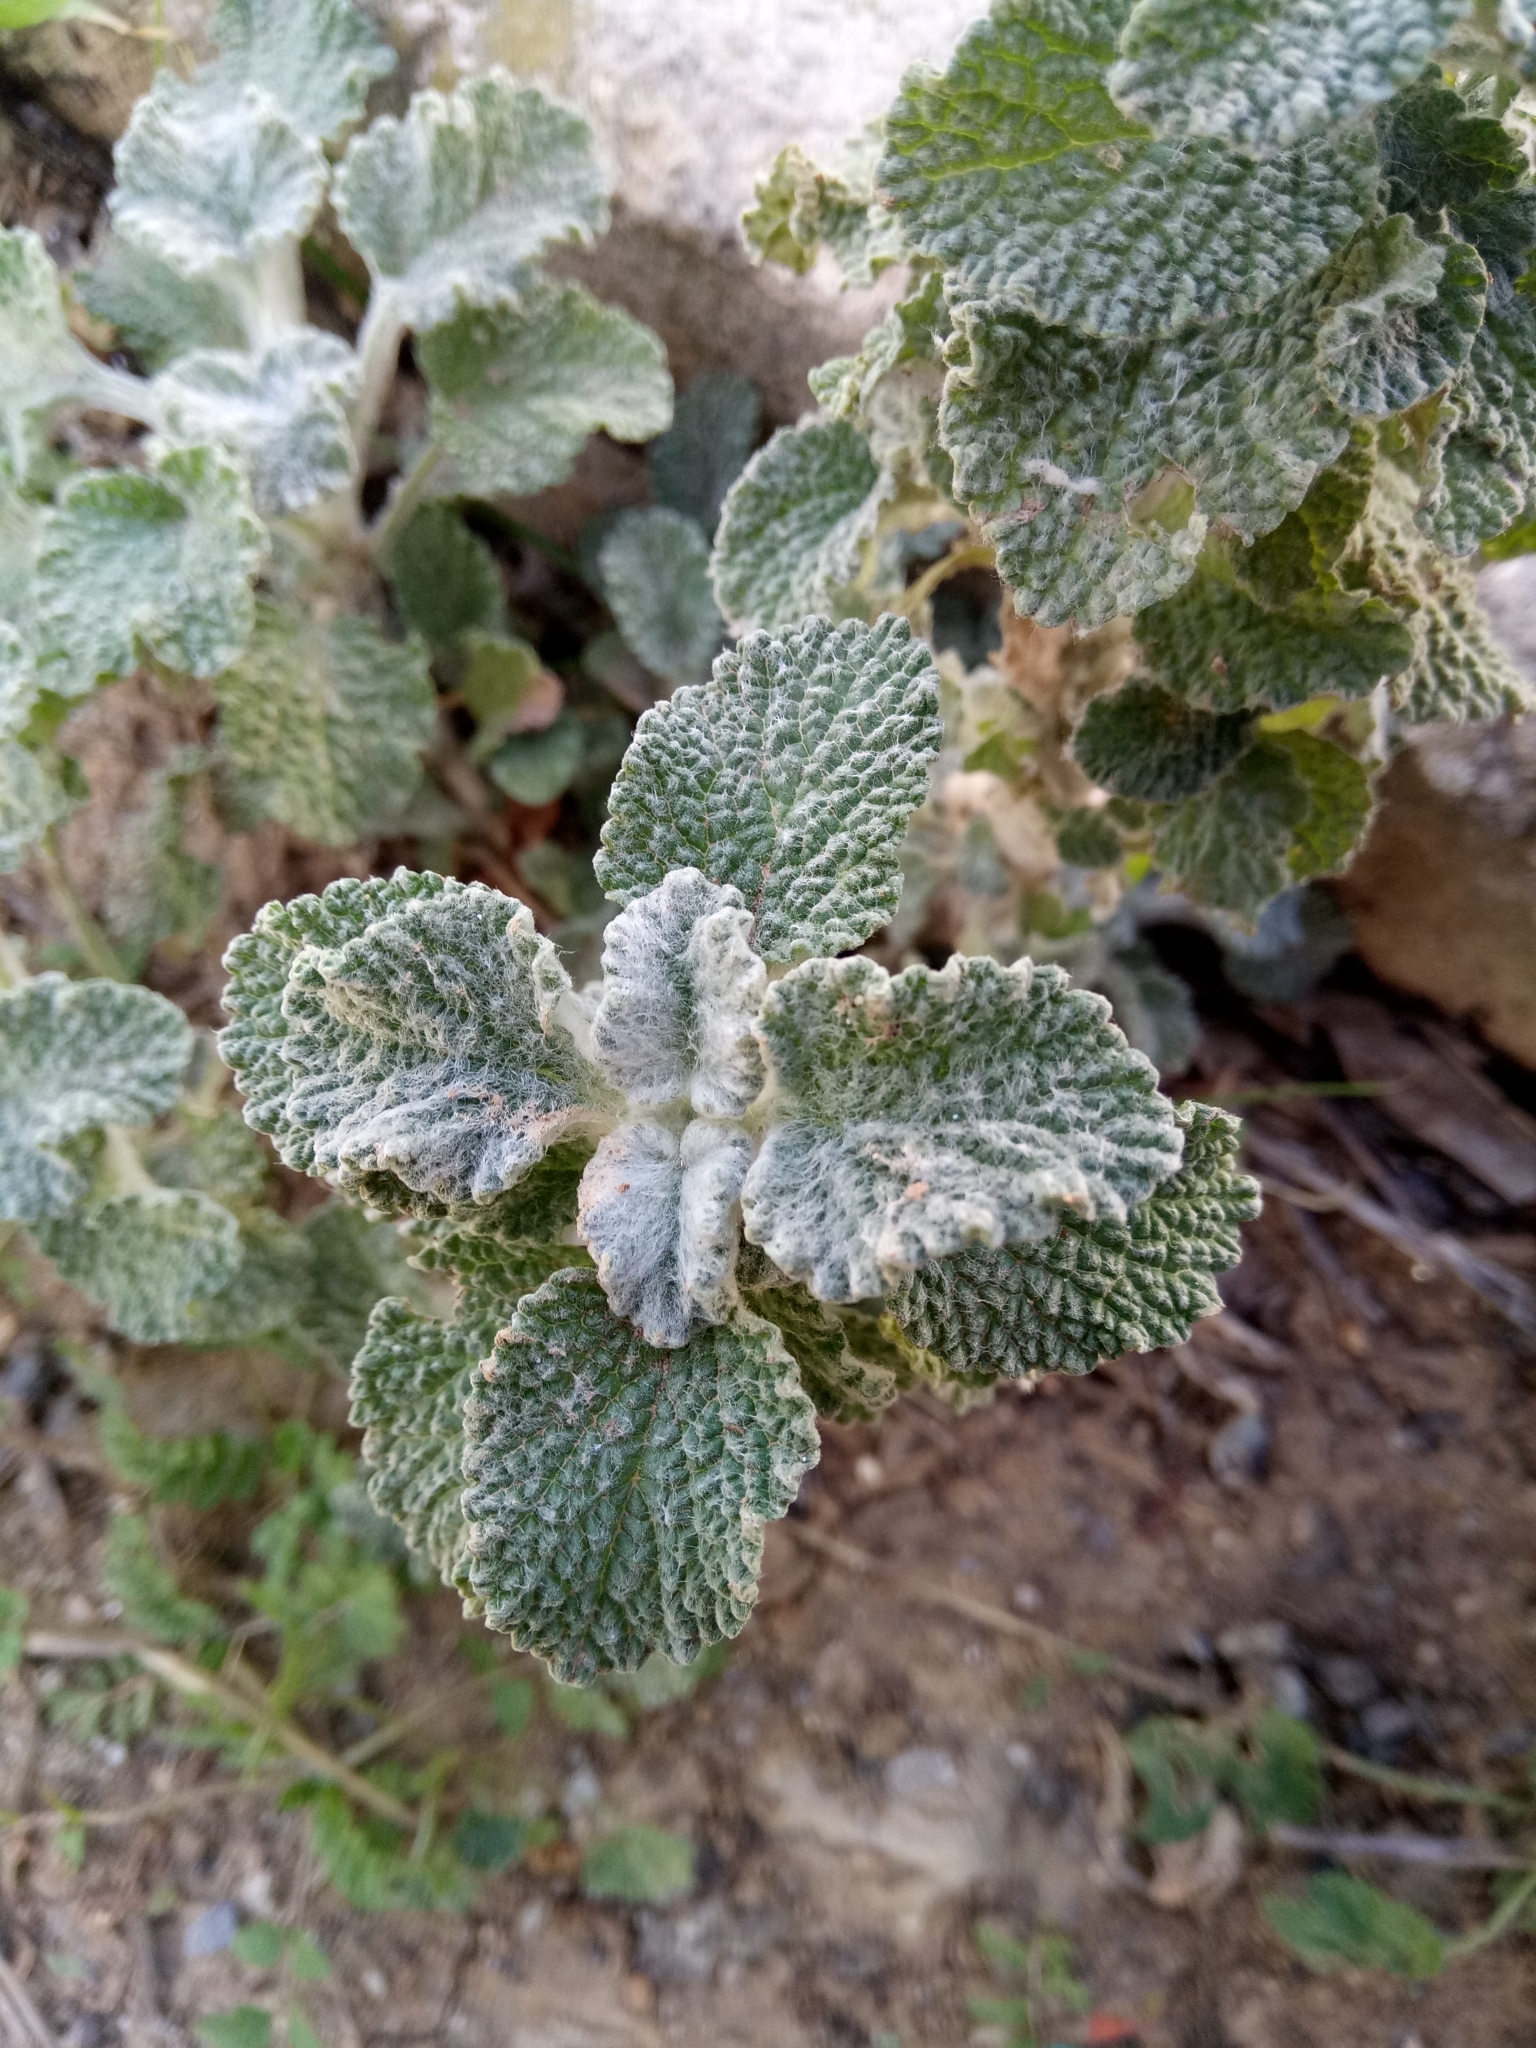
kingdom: Plantae
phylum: Tracheophyta
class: Magnoliopsida
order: Lamiales
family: Lamiaceae
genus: Marrubium
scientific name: Marrubium vulgare
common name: Horehound
